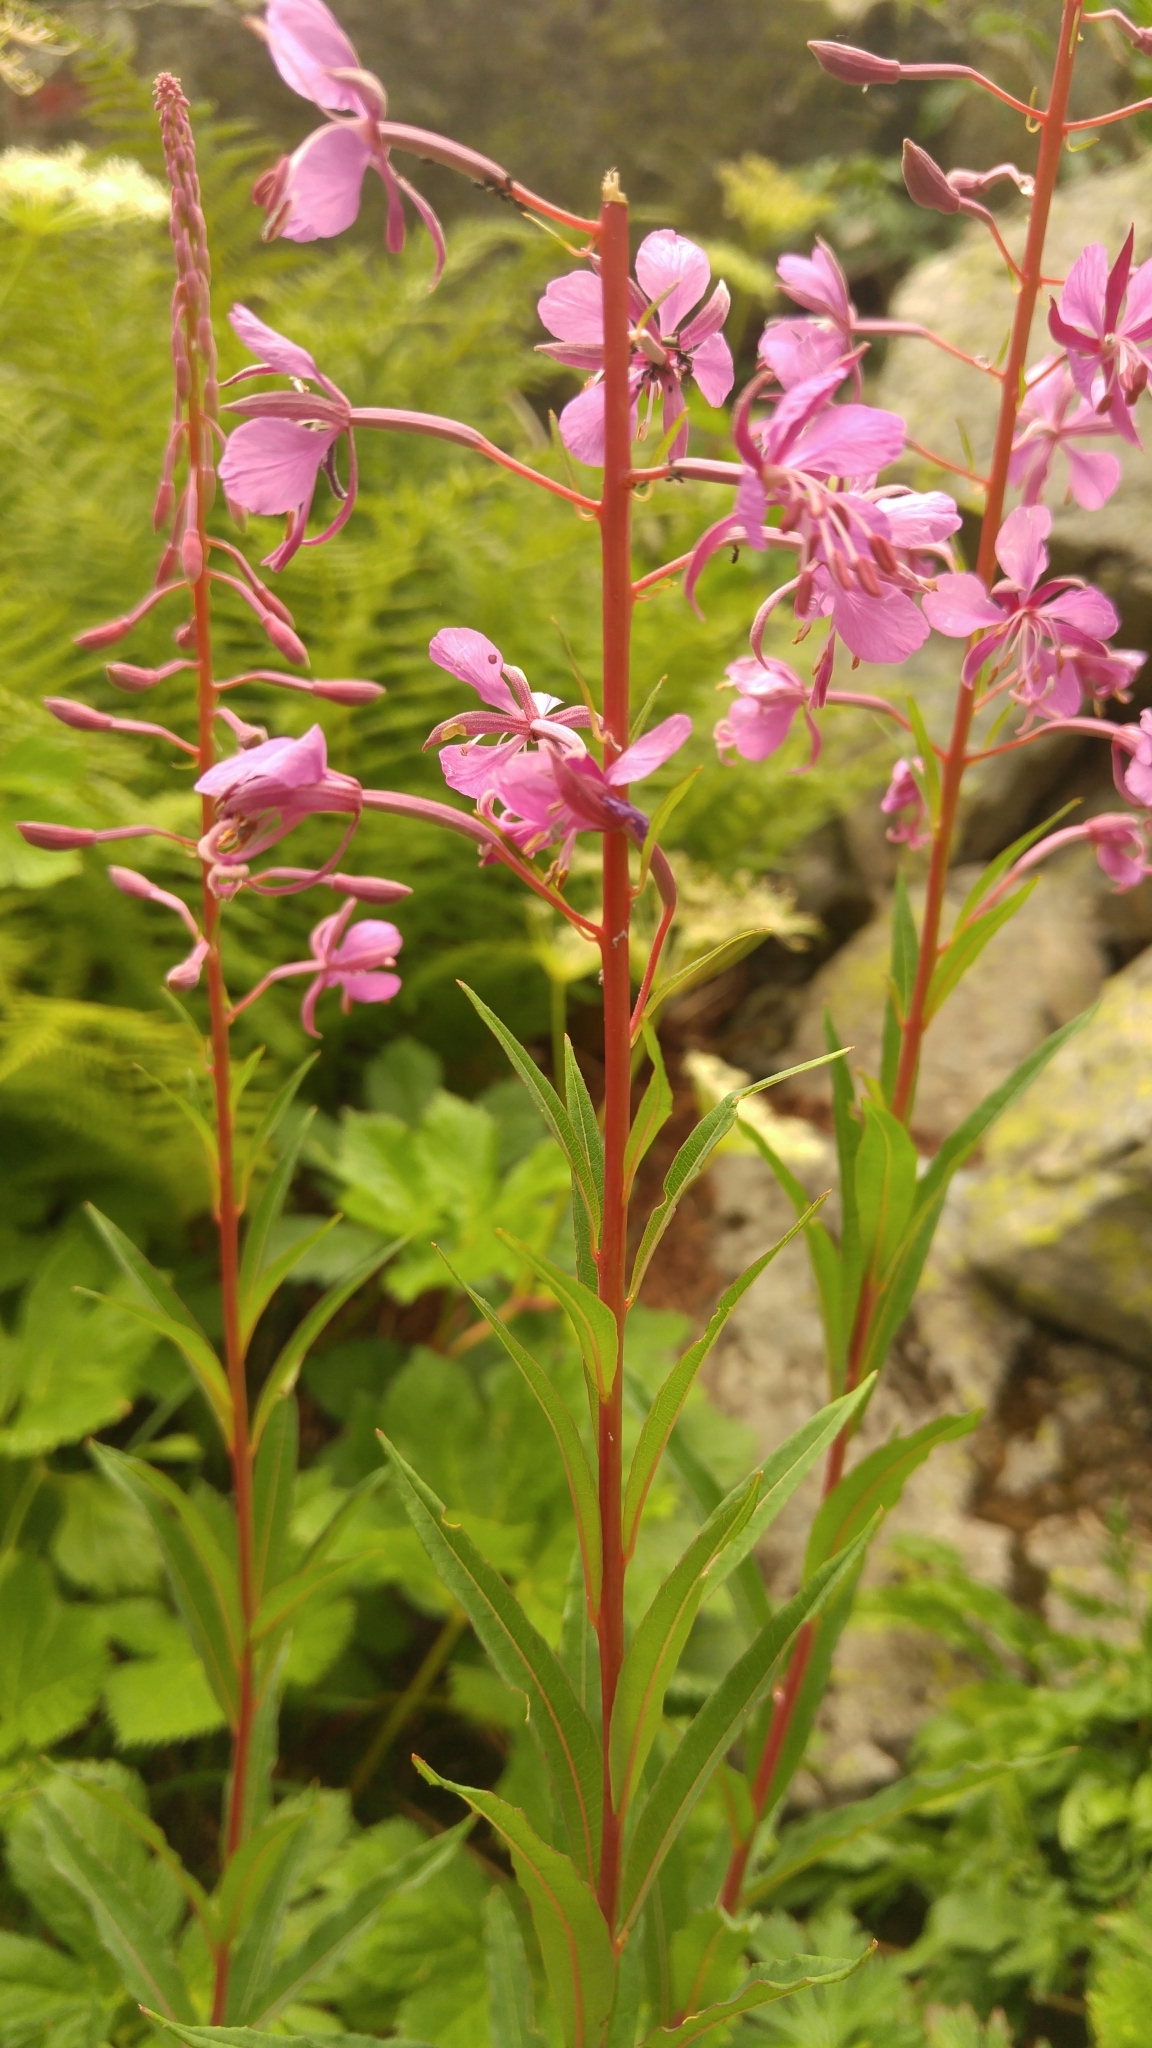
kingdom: Plantae
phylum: Tracheophyta
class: Magnoliopsida
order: Myrtales
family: Onagraceae
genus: Chamaenerion
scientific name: Chamaenerion angustifolium
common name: Fireweed
